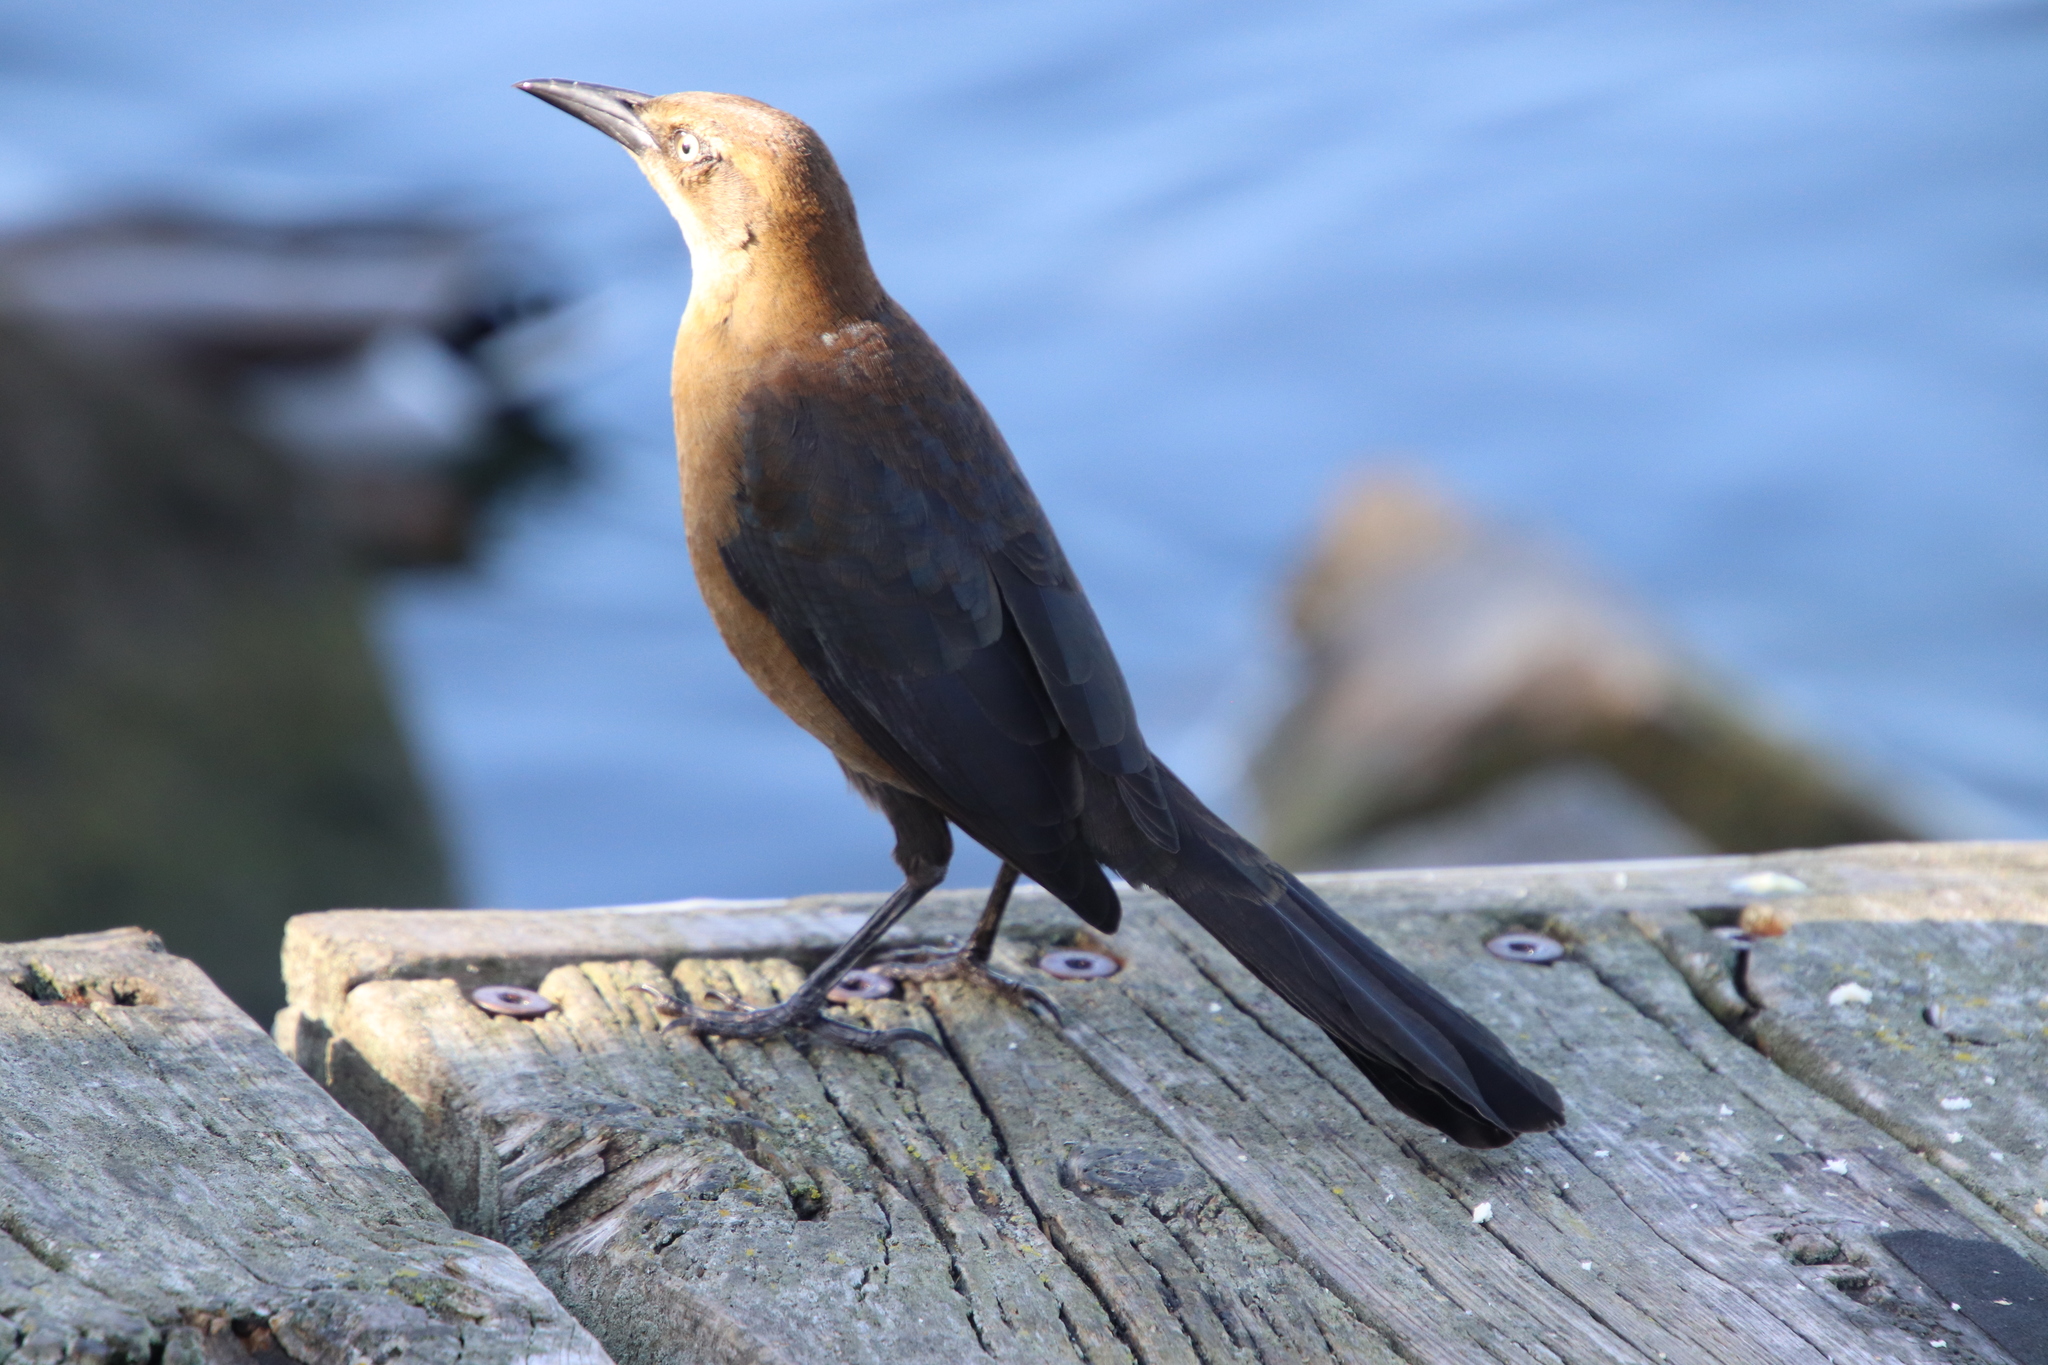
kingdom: Animalia
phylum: Chordata
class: Aves
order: Passeriformes
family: Icteridae
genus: Quiscalus
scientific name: Quiscalus mexicanus
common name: Great-tailed grackle
